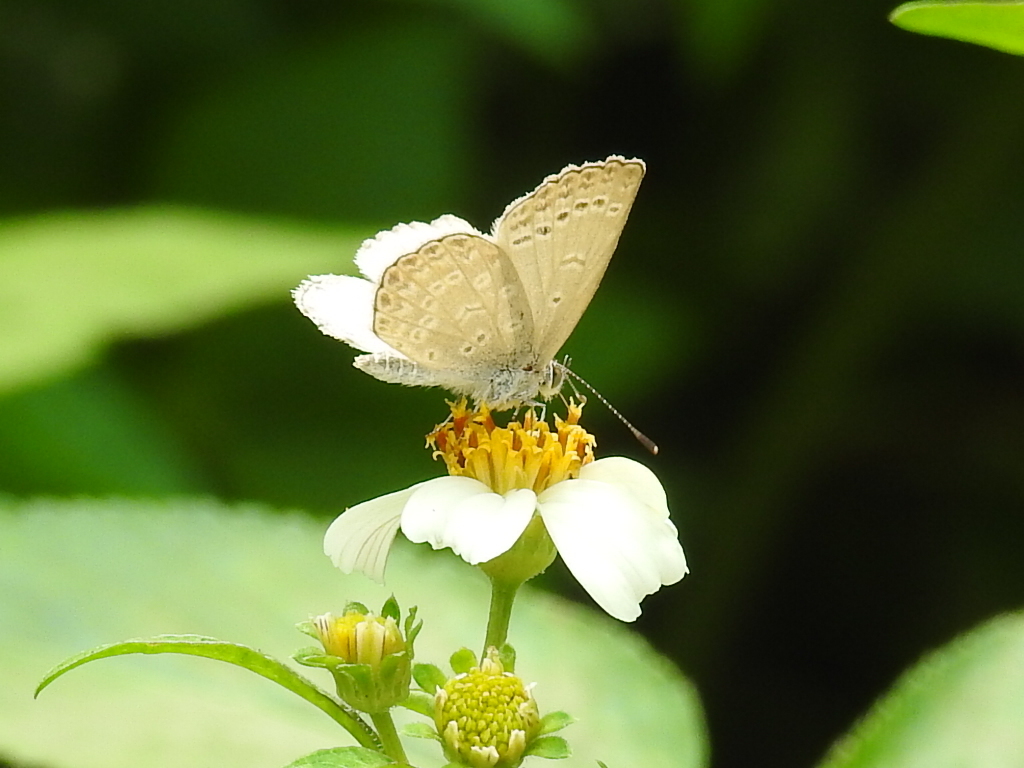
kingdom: Animalia
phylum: Arthropoda
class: Insecta
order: Lepidoptera
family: Lycaenidae
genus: Pseudozizeeria
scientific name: Pseudozizeeria maha
